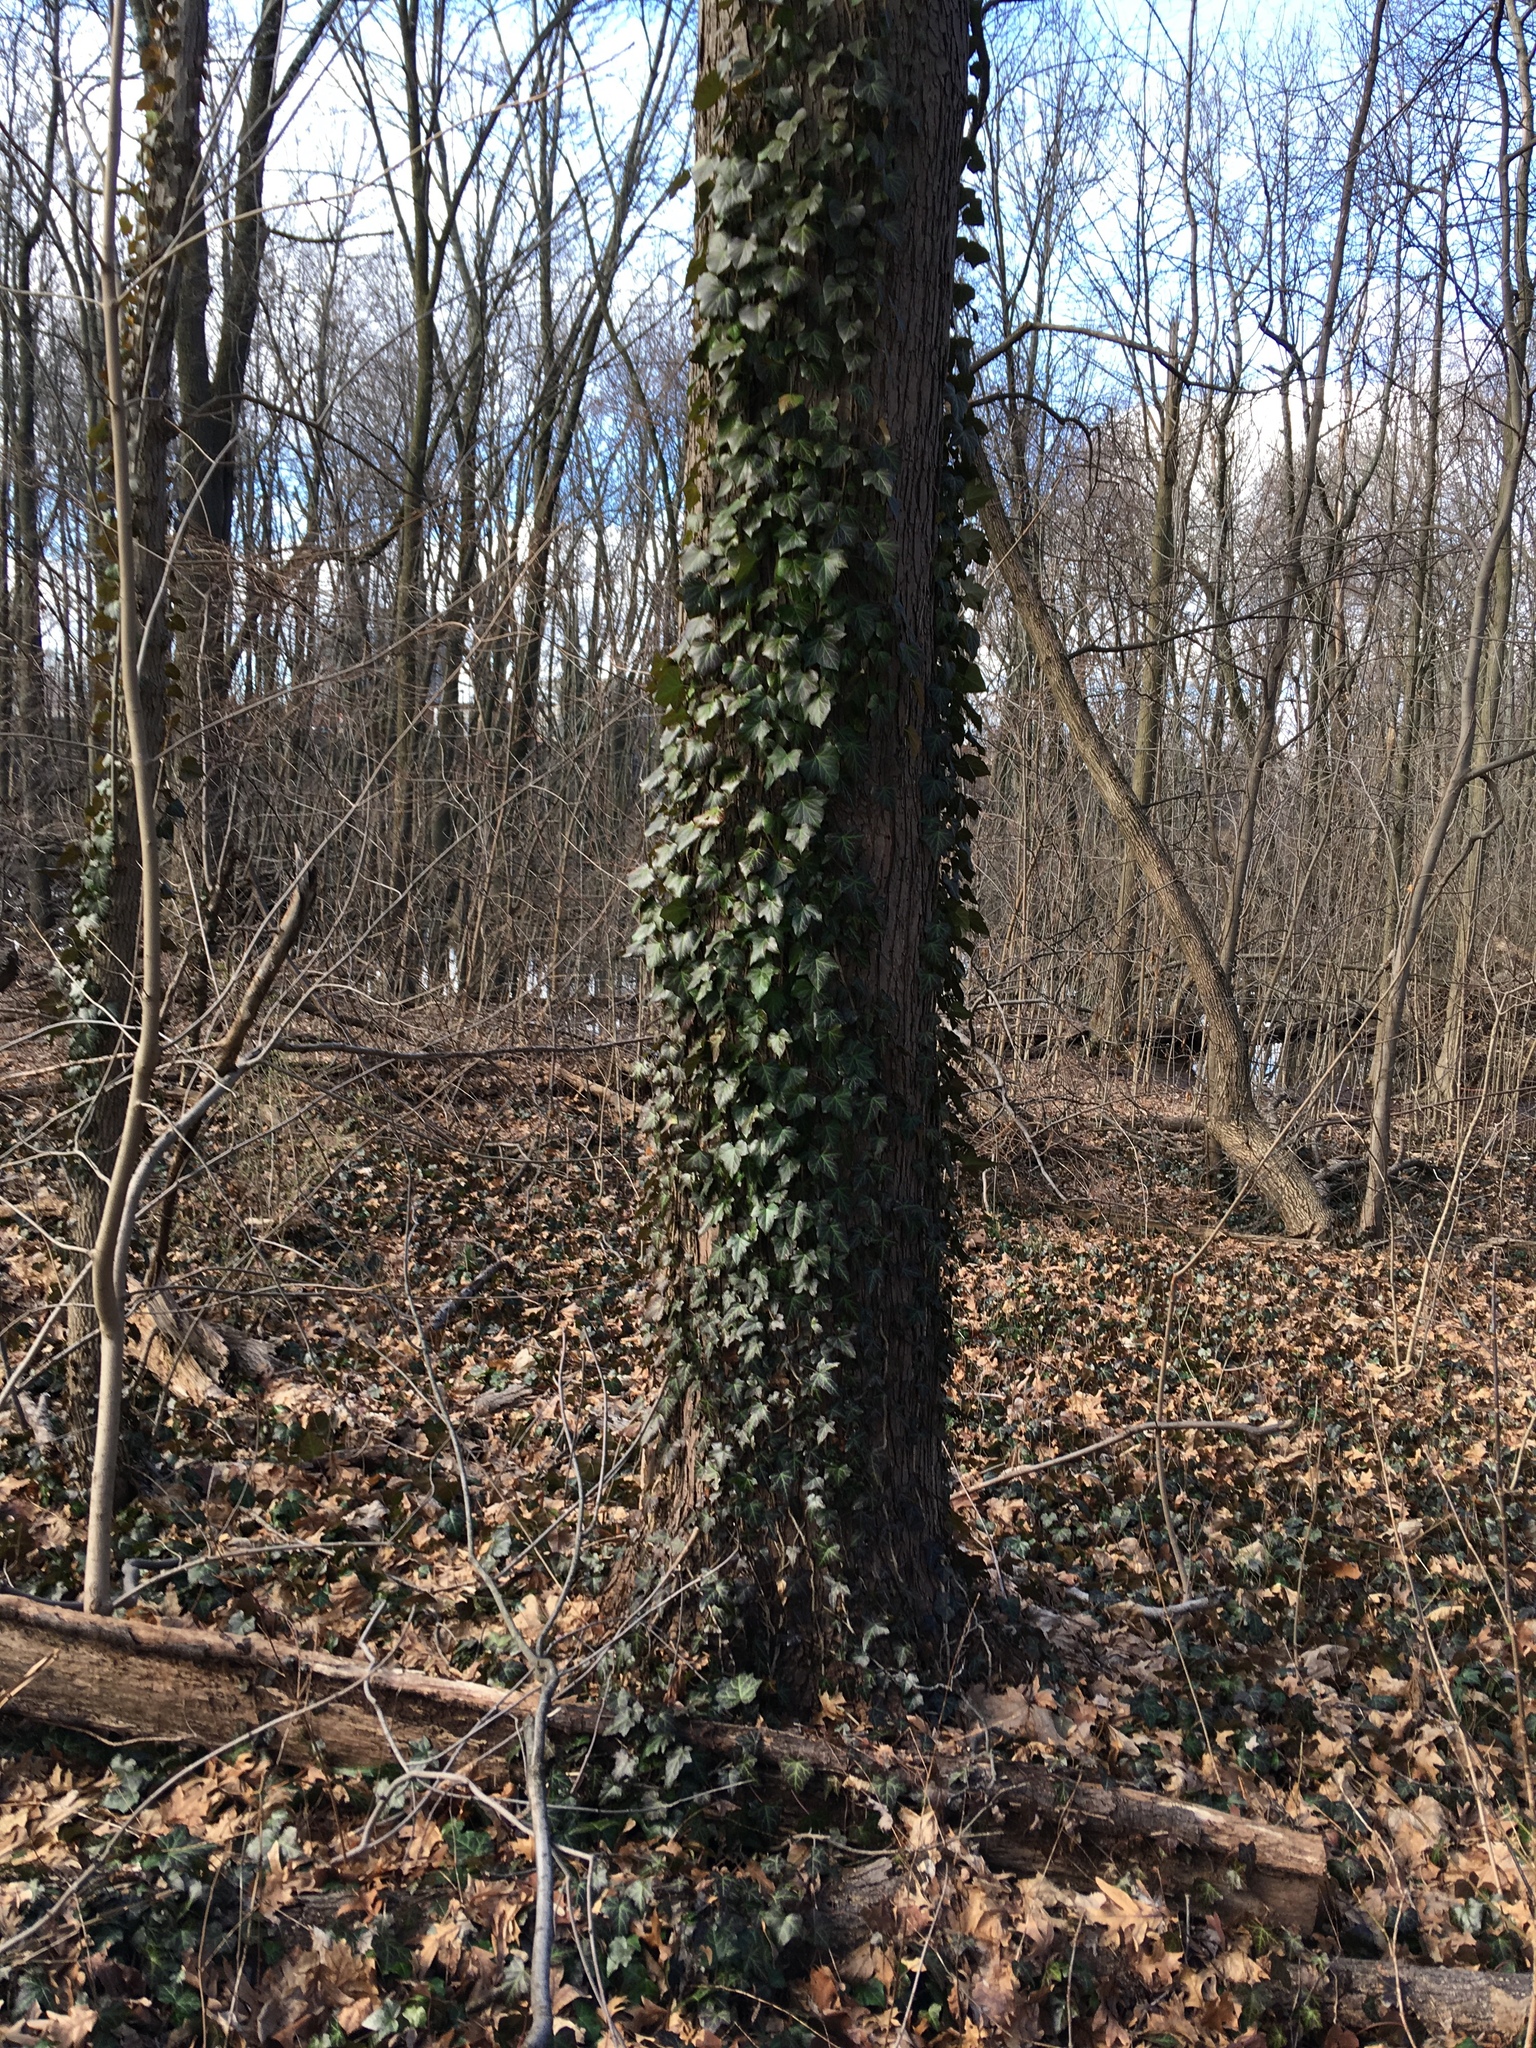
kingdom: Plantae
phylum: Tracheophyta
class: Magnoliopsida
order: Apiales
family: Araliaceae
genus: Hedera
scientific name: Hedera helix
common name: Ivy
